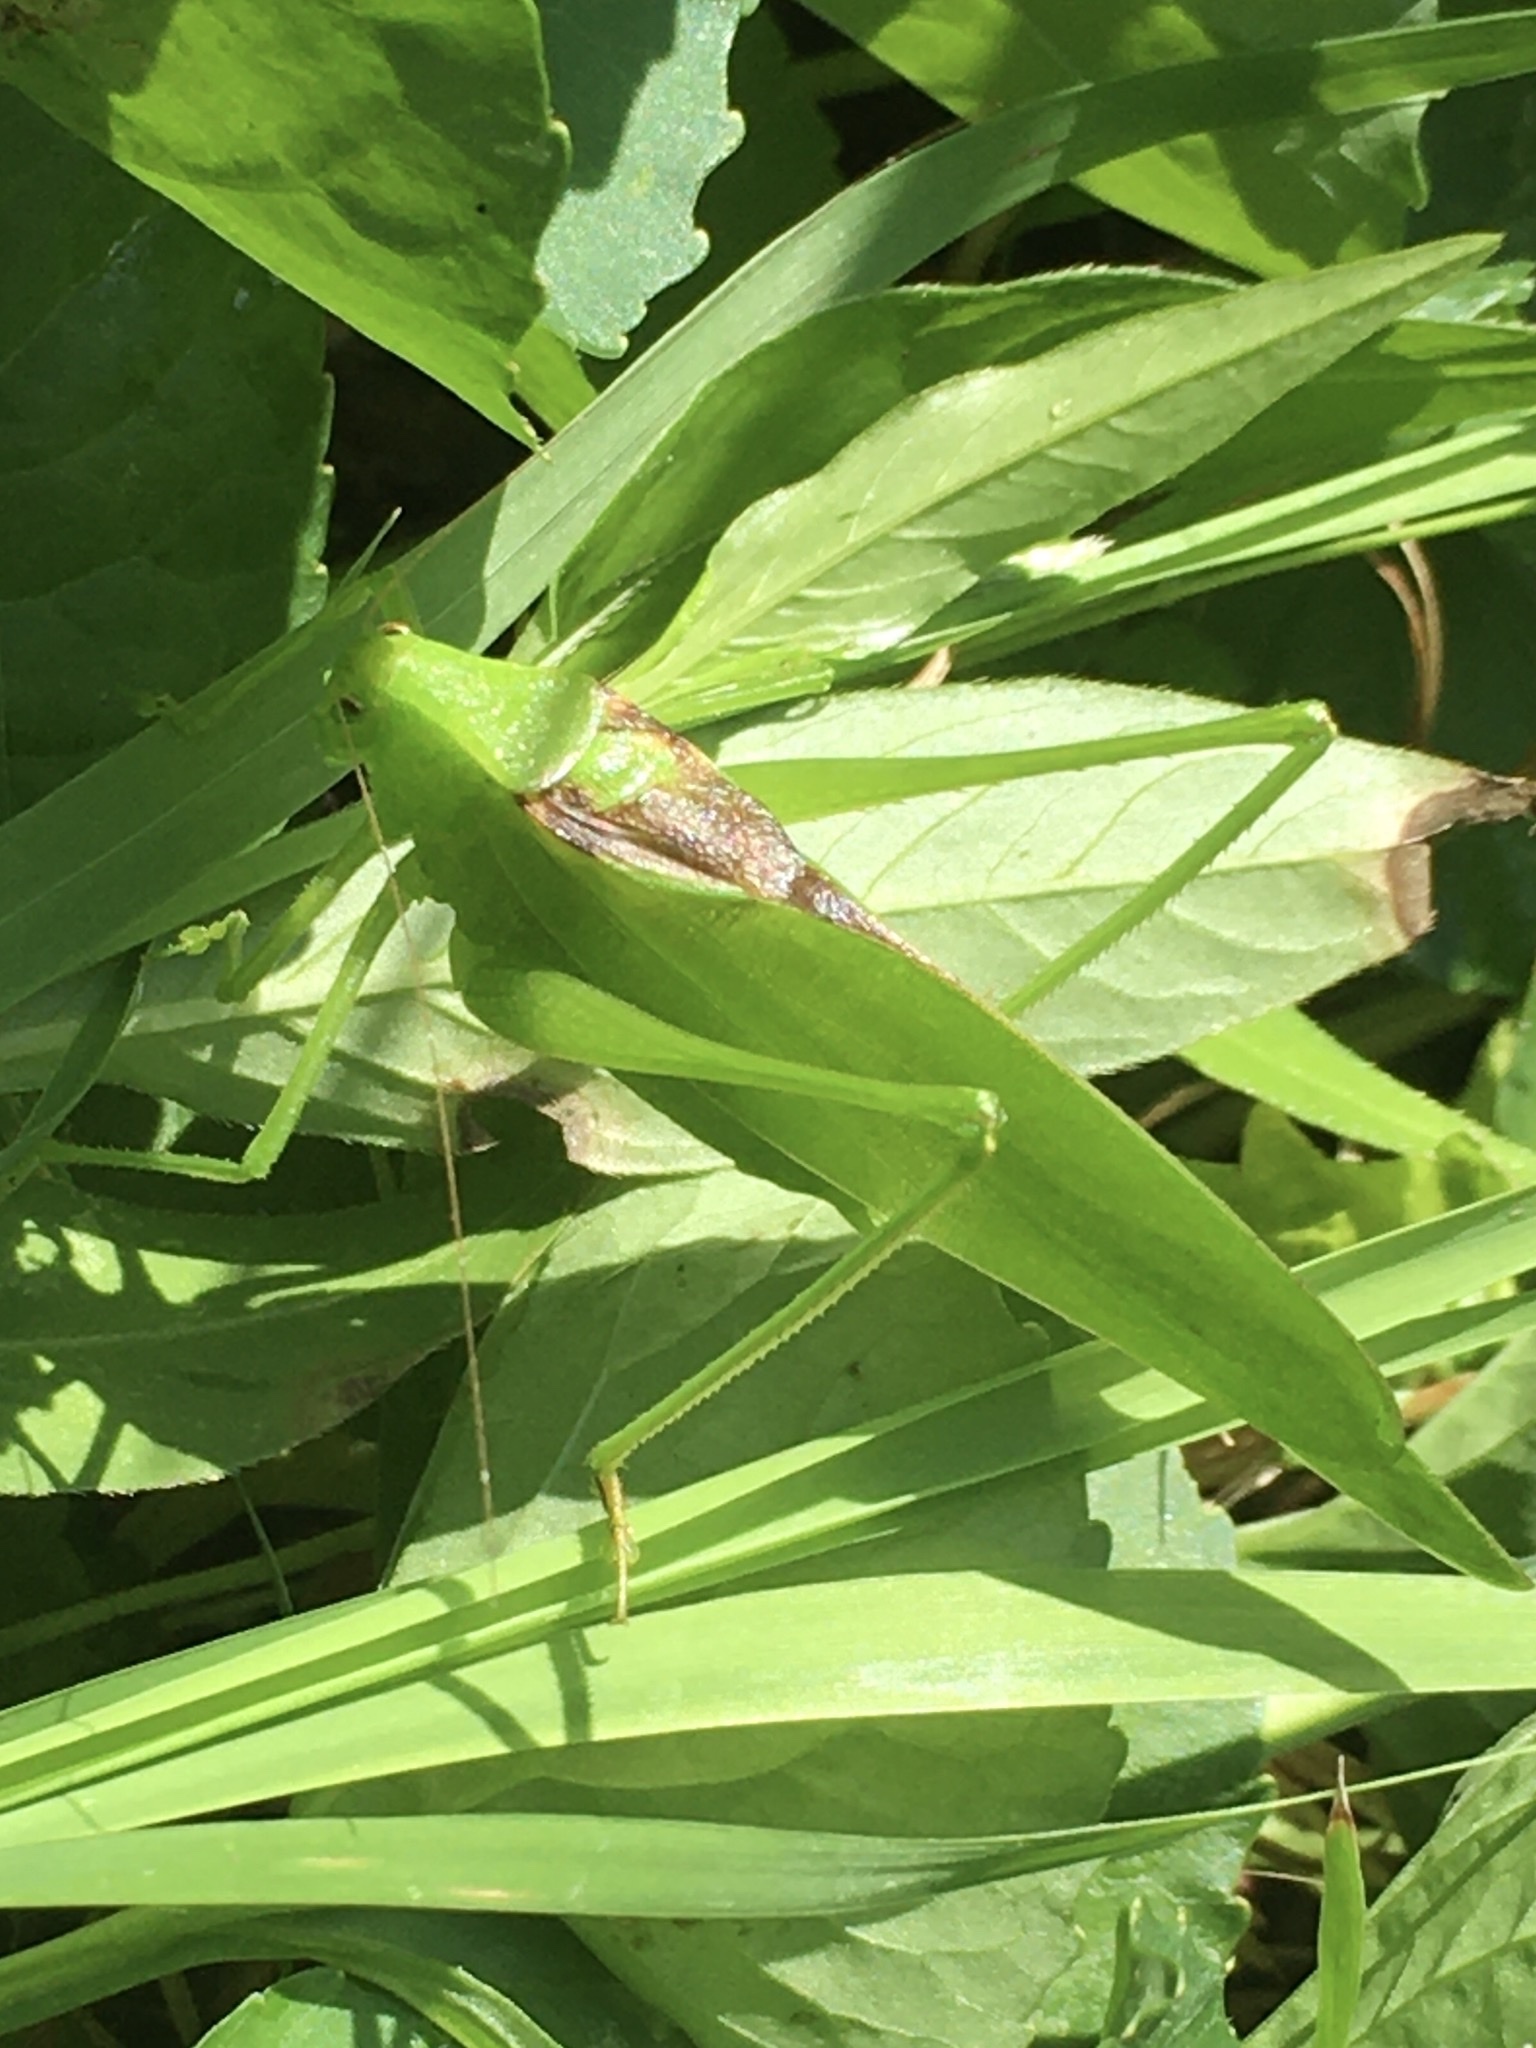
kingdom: Animalia
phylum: Arthropoda
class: Insecta
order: Orthoptera
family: Tettigoniidae
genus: Amblycorypha
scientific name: Amblycorypha oblongifolia
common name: Oblong-winged katydid
